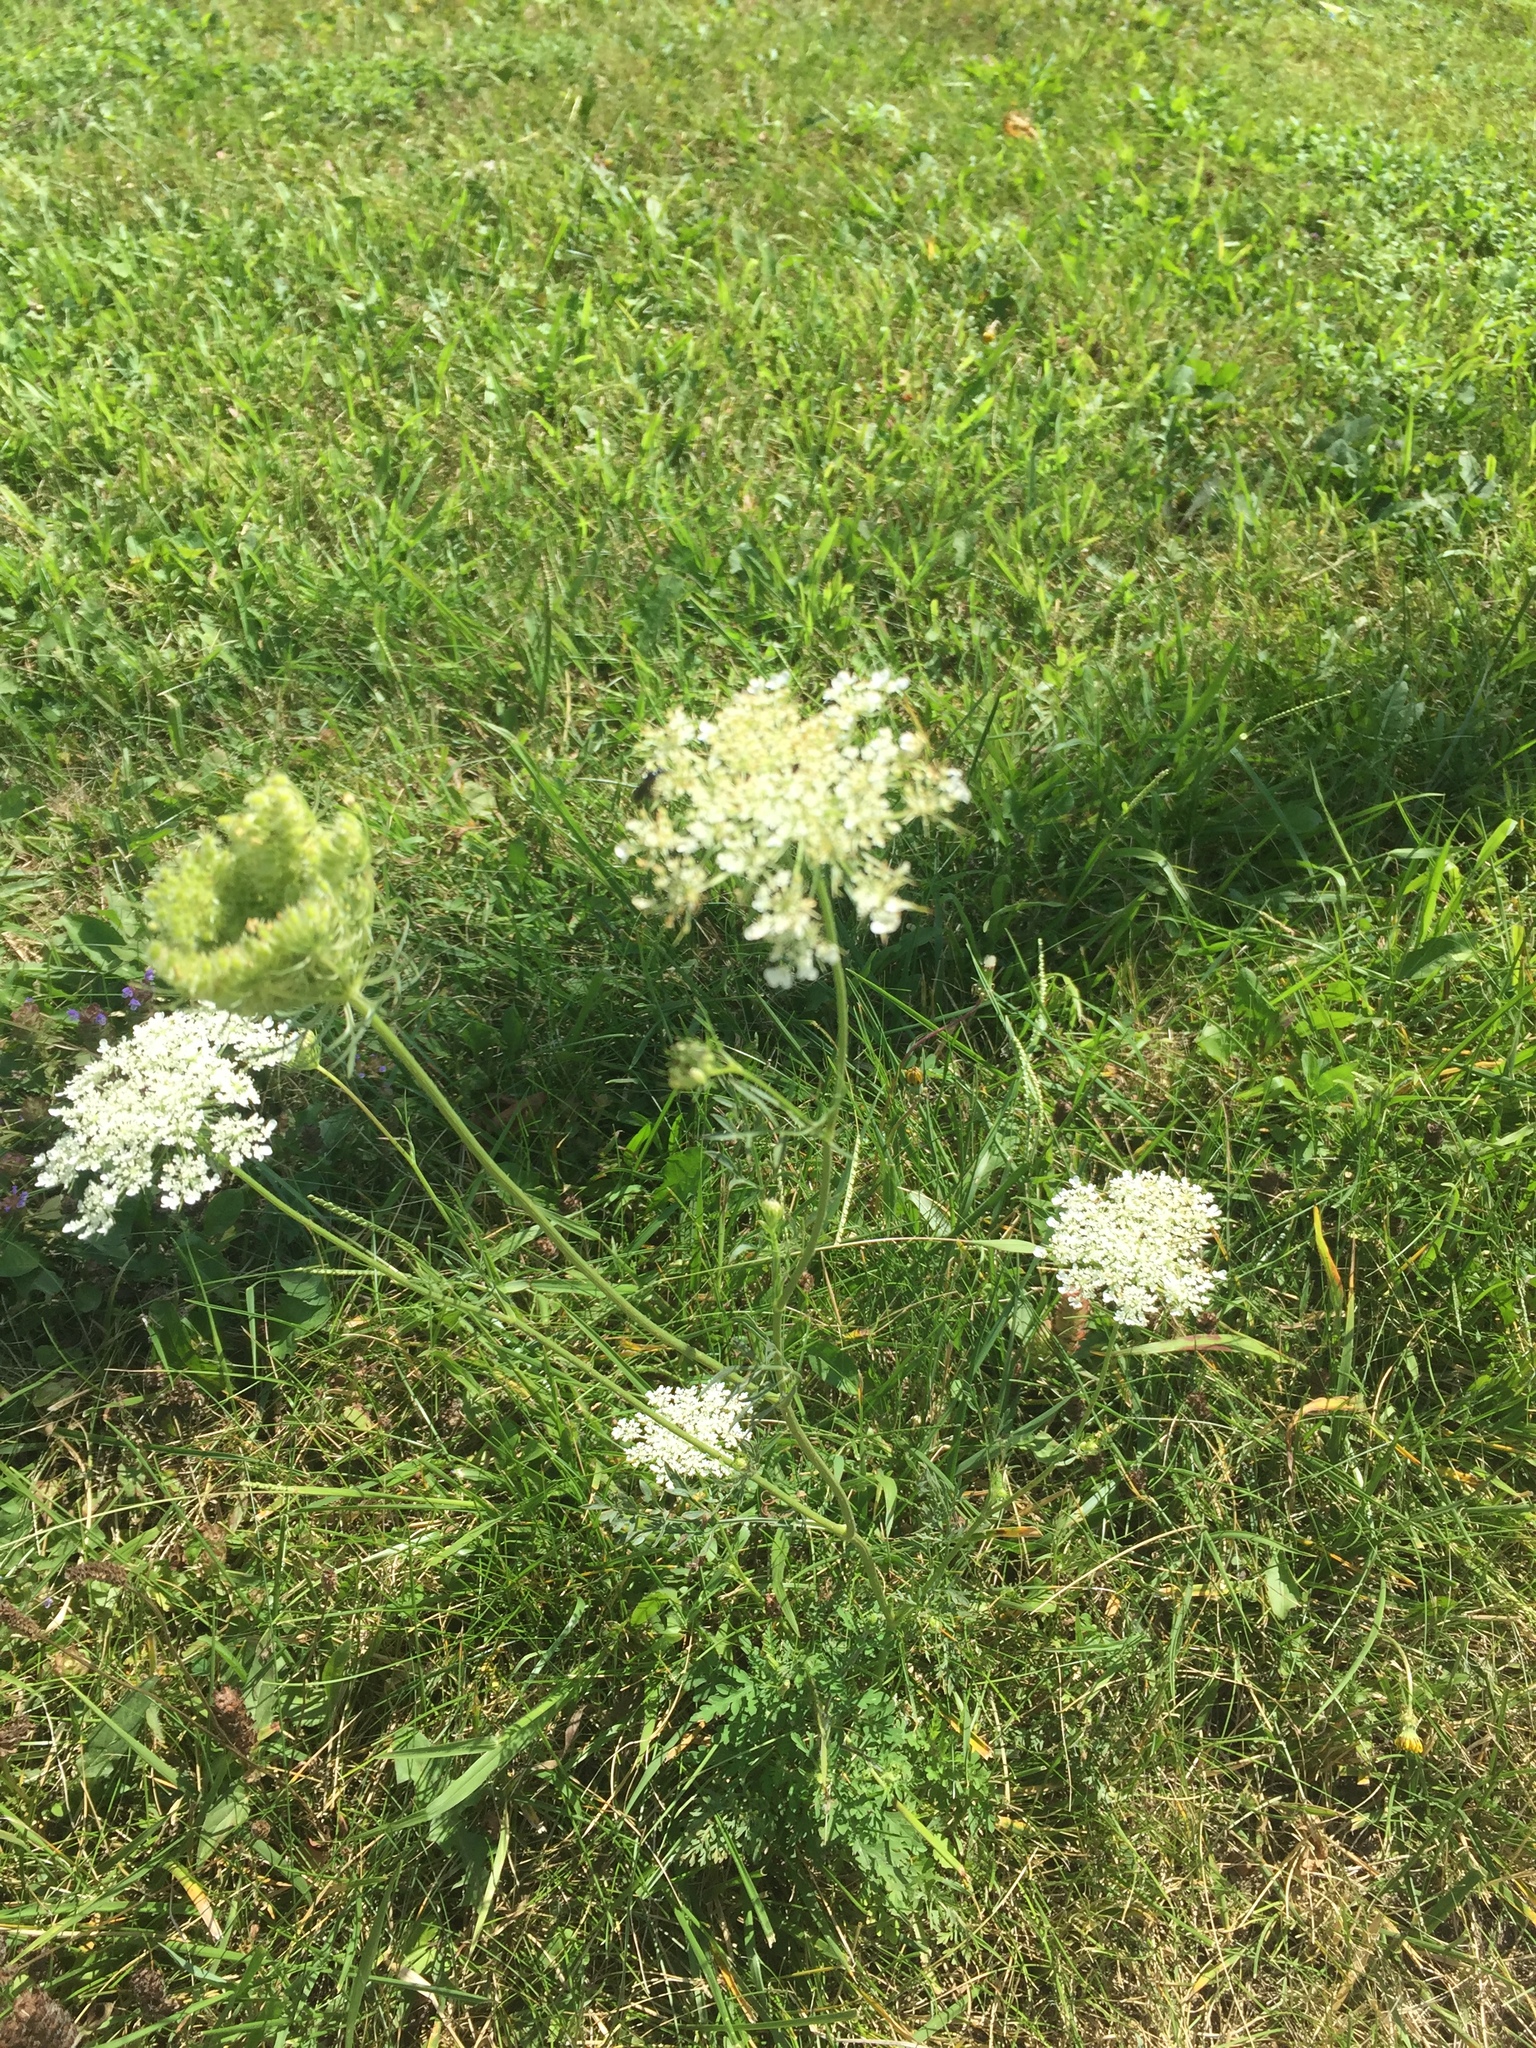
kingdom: Plantae
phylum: Tracheophyta
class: Magnoliopsida
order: Apiales
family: Apiaceae
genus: Daucus
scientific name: Daucus carota
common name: Wild carrot
